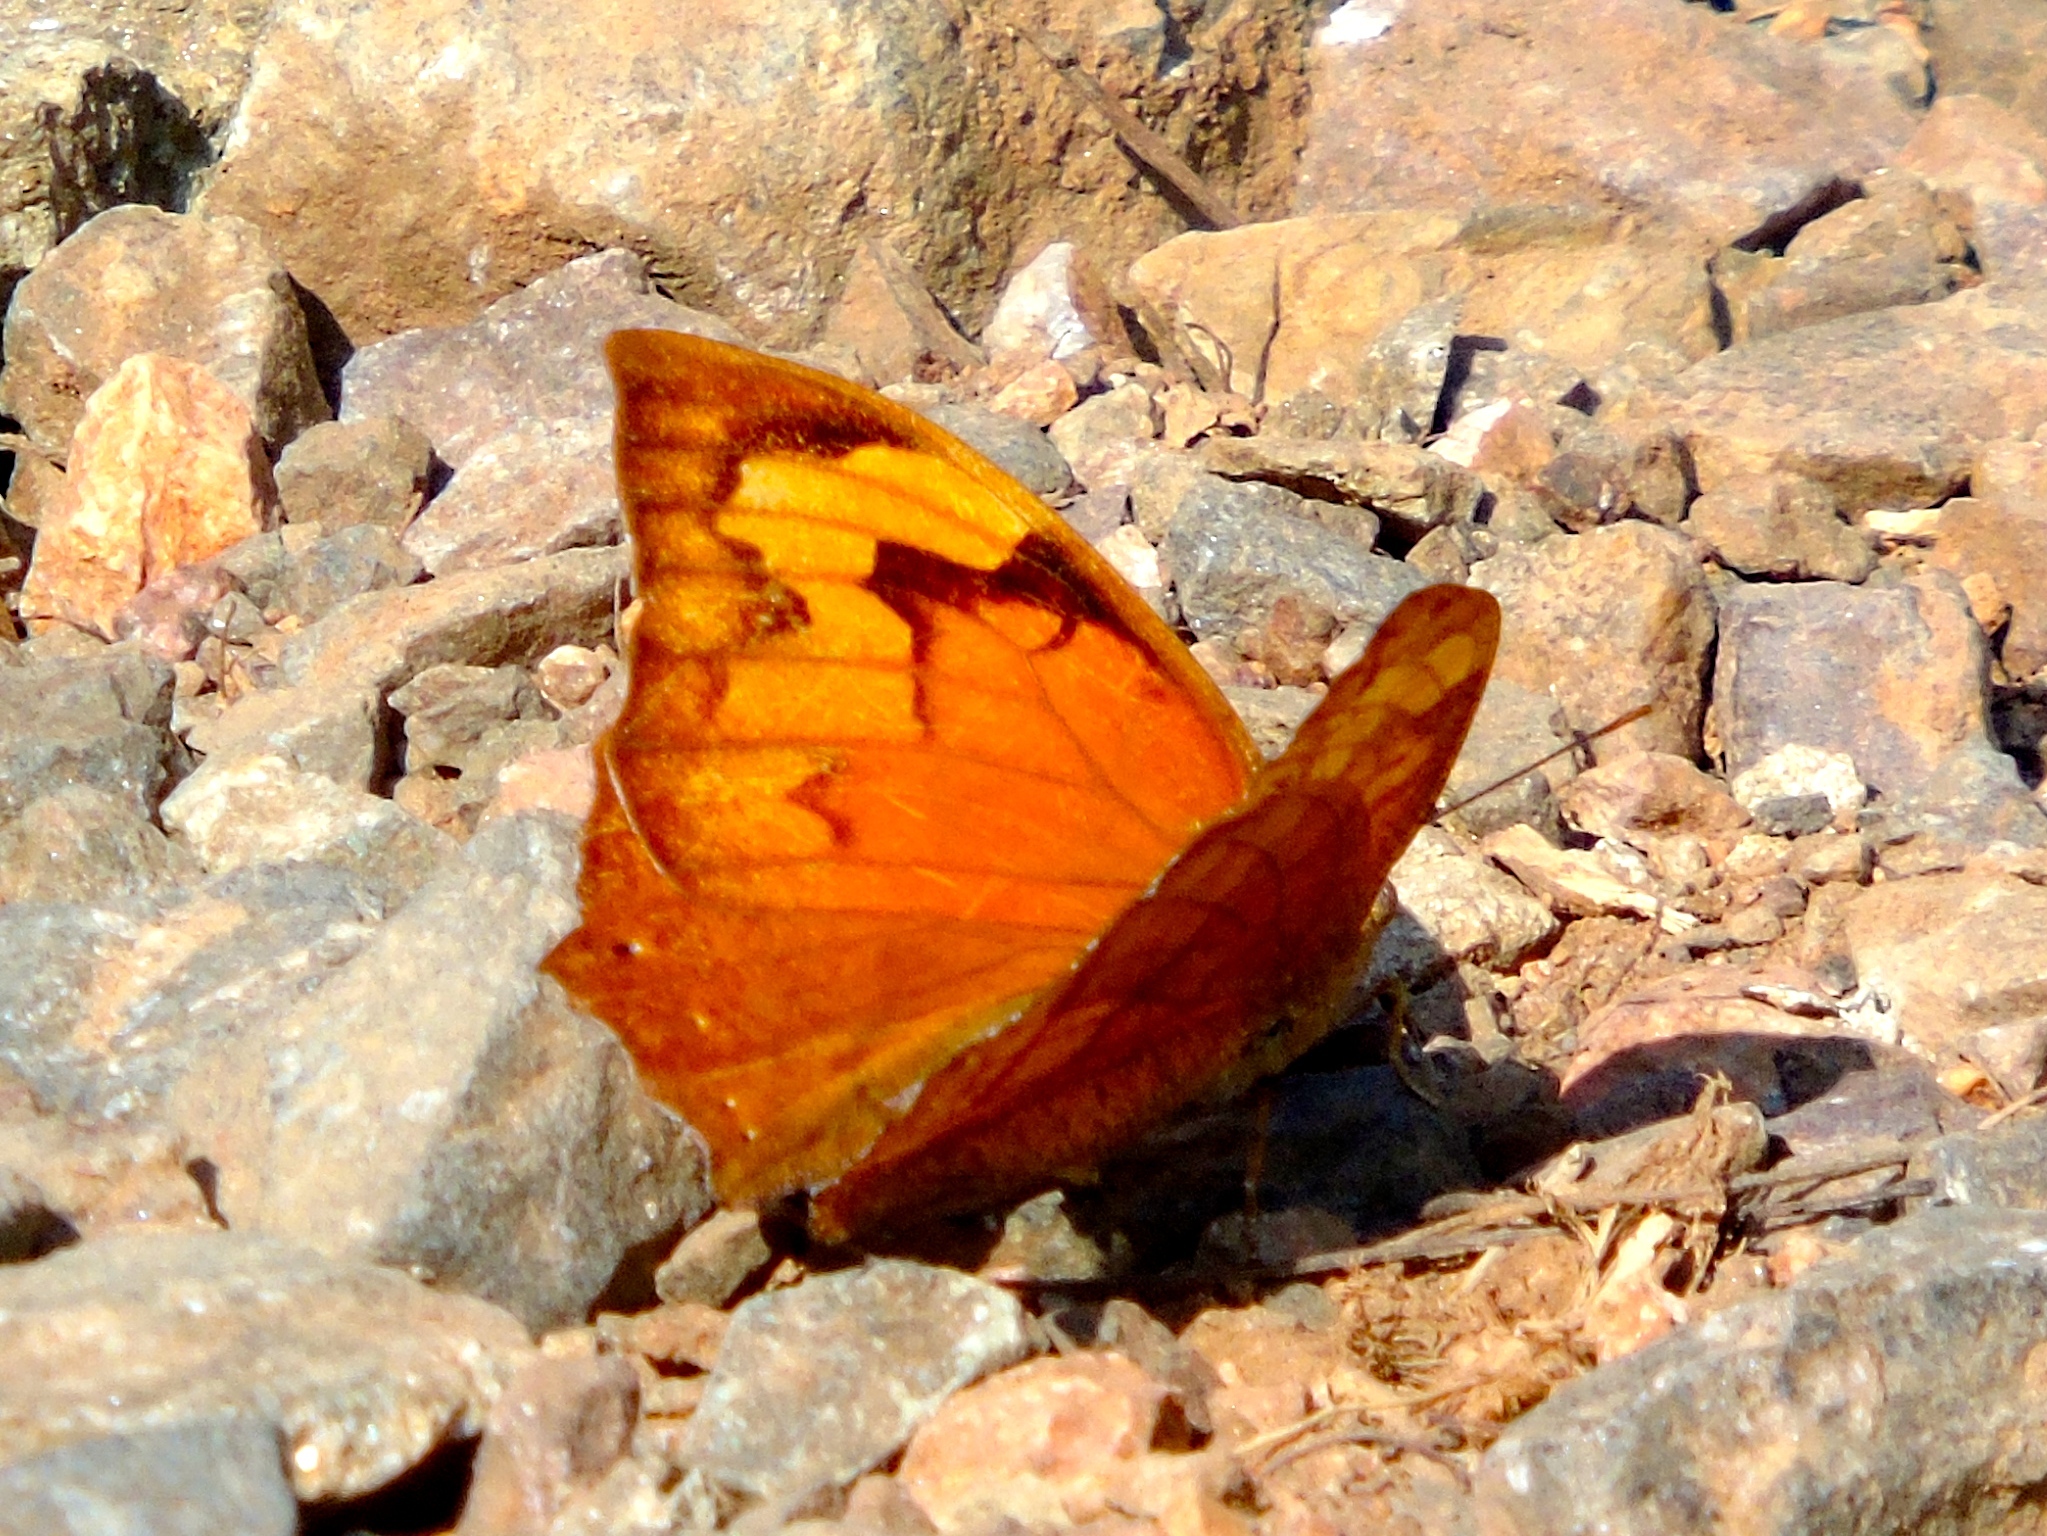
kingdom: Animalia
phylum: Arthropoda
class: Insecta
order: Lepidoptera
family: Nymphalidae
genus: Fountainea
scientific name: Fountainea
